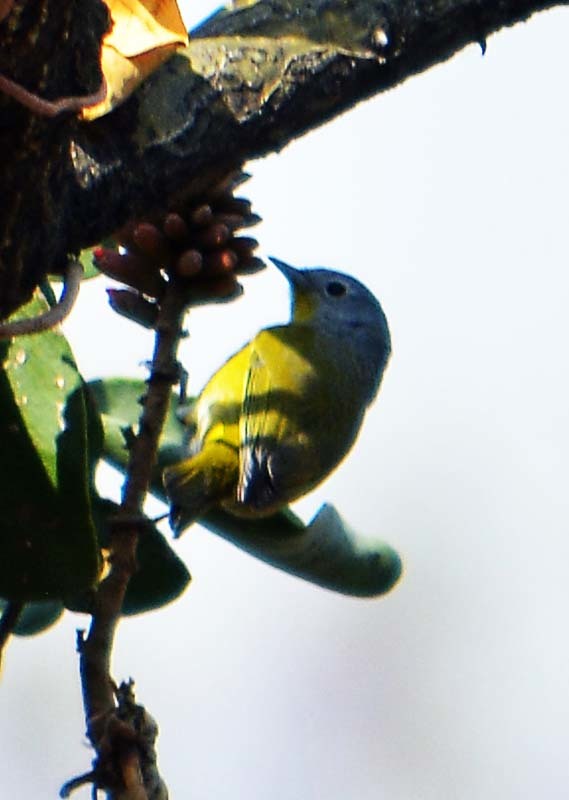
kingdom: Animalia
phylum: Chordata
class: Aves
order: Passeriformes
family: Parulidae
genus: Leiothlypis
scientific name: Leiothlypis ruficapilla
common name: Nashville warbler
